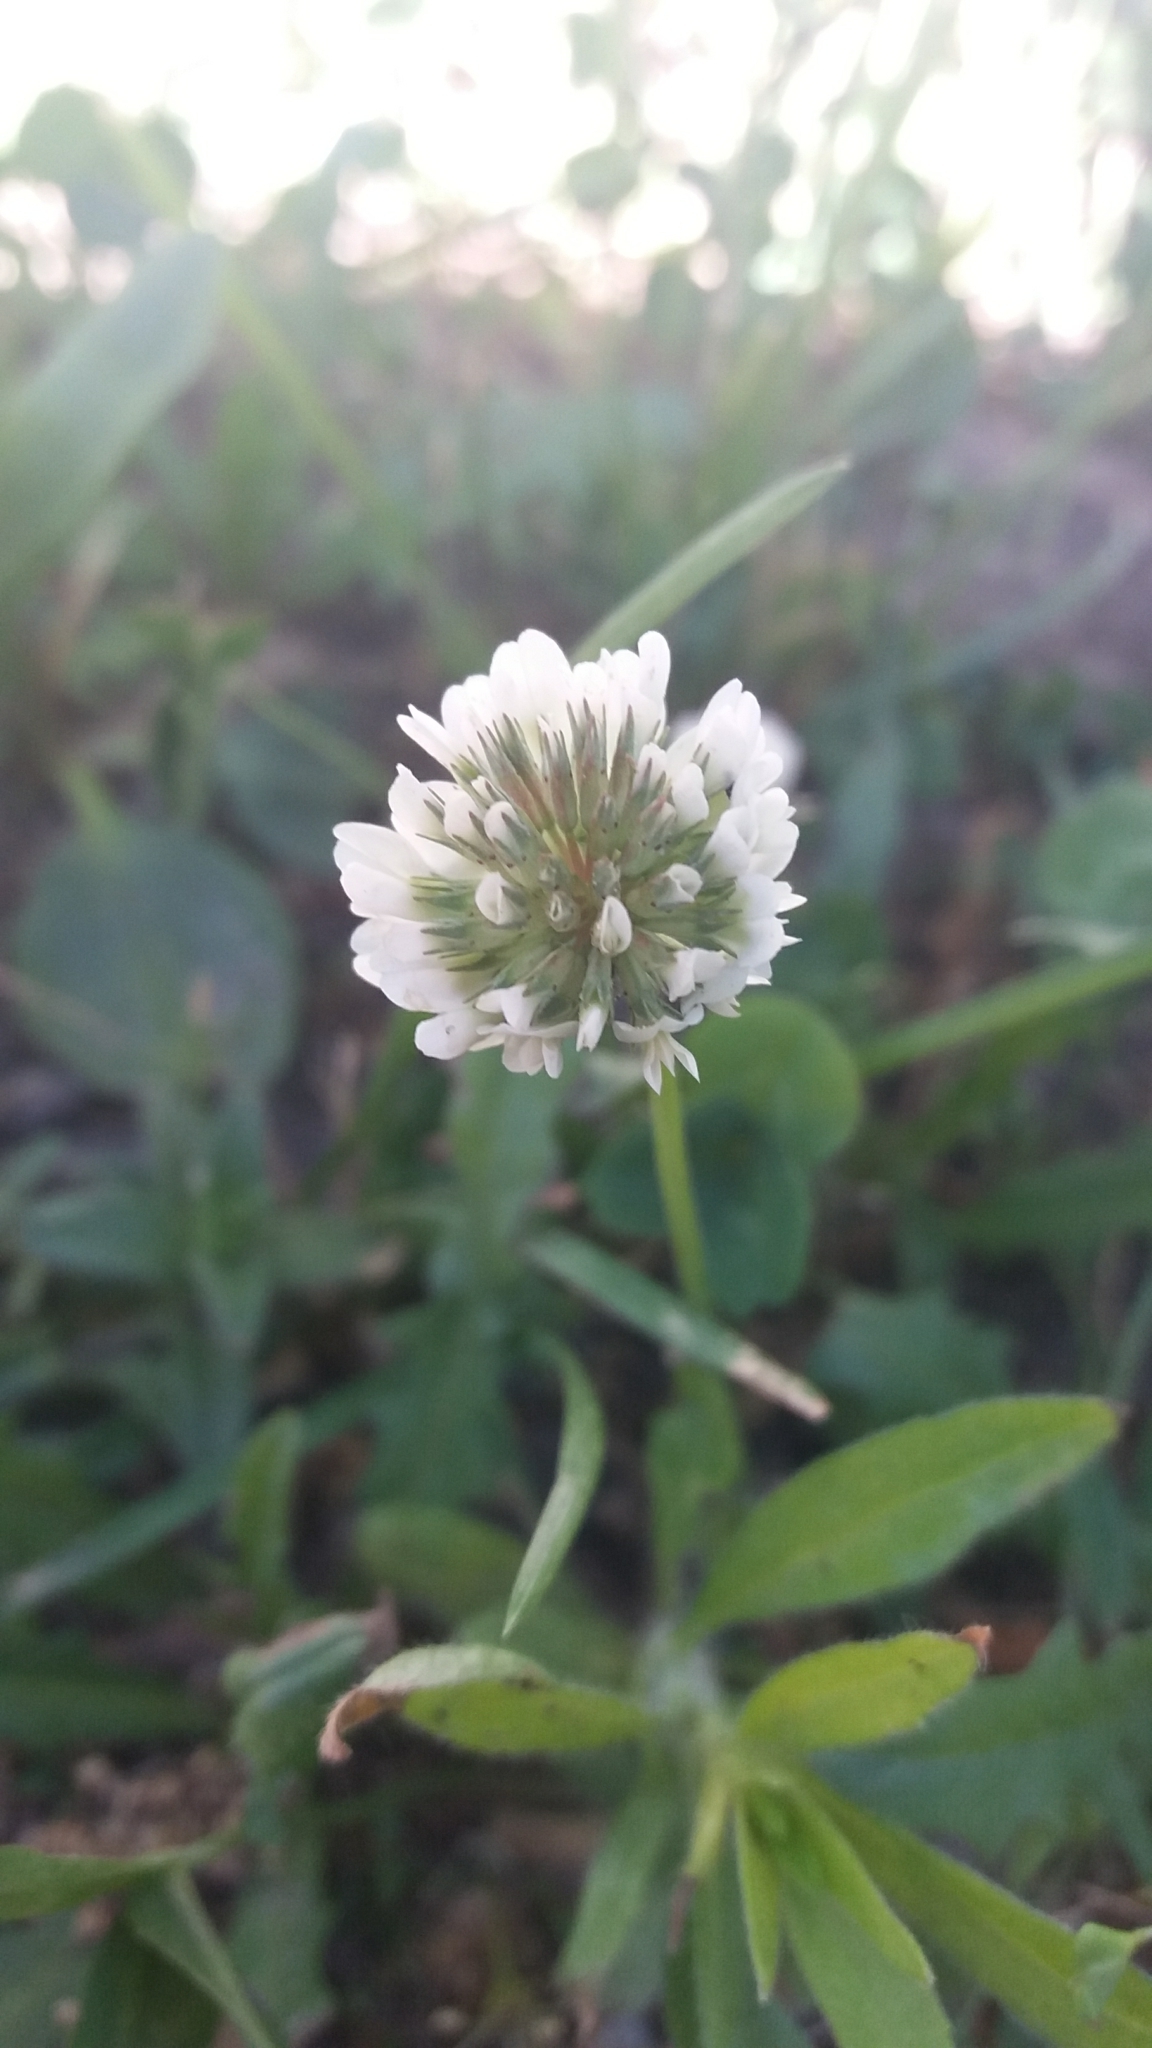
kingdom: Plantae
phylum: Tracheophyta
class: Magnoliopsida
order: Fabales
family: Fabaceae
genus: Trifolium
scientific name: Trifolium repens
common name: White clover
